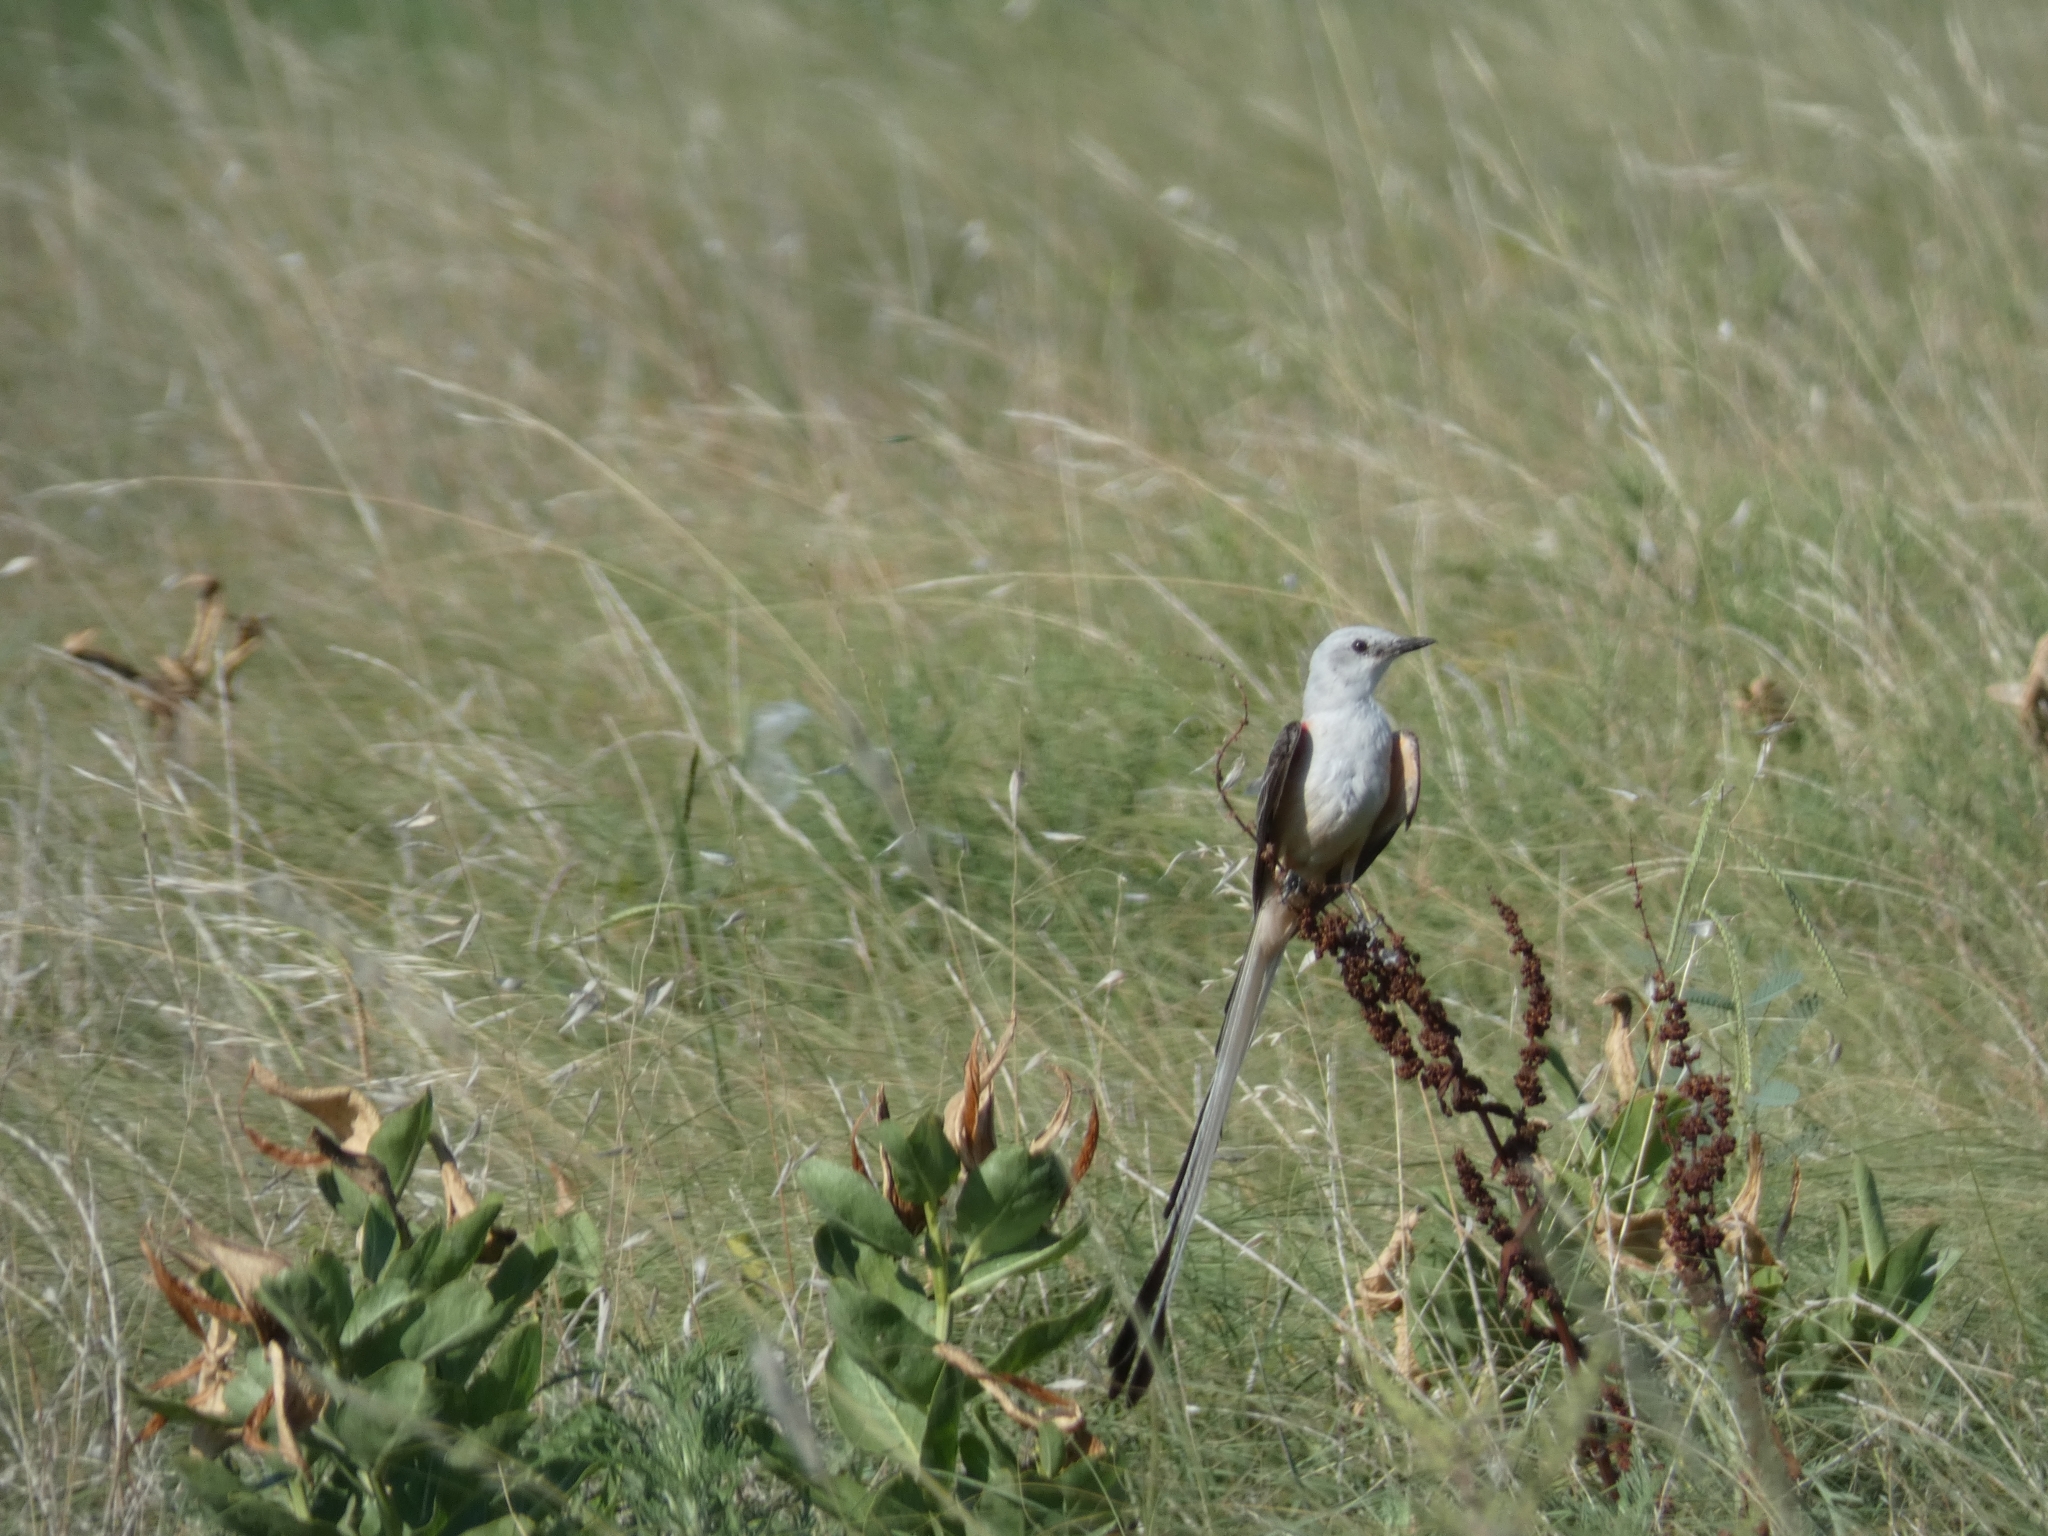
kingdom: Animalia
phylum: Chordata
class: Aves
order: Passeriformes
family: Tyrannidae
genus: Tyrannus
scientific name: Tyrannus forficatus
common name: Scissor-tailed flycatcher
